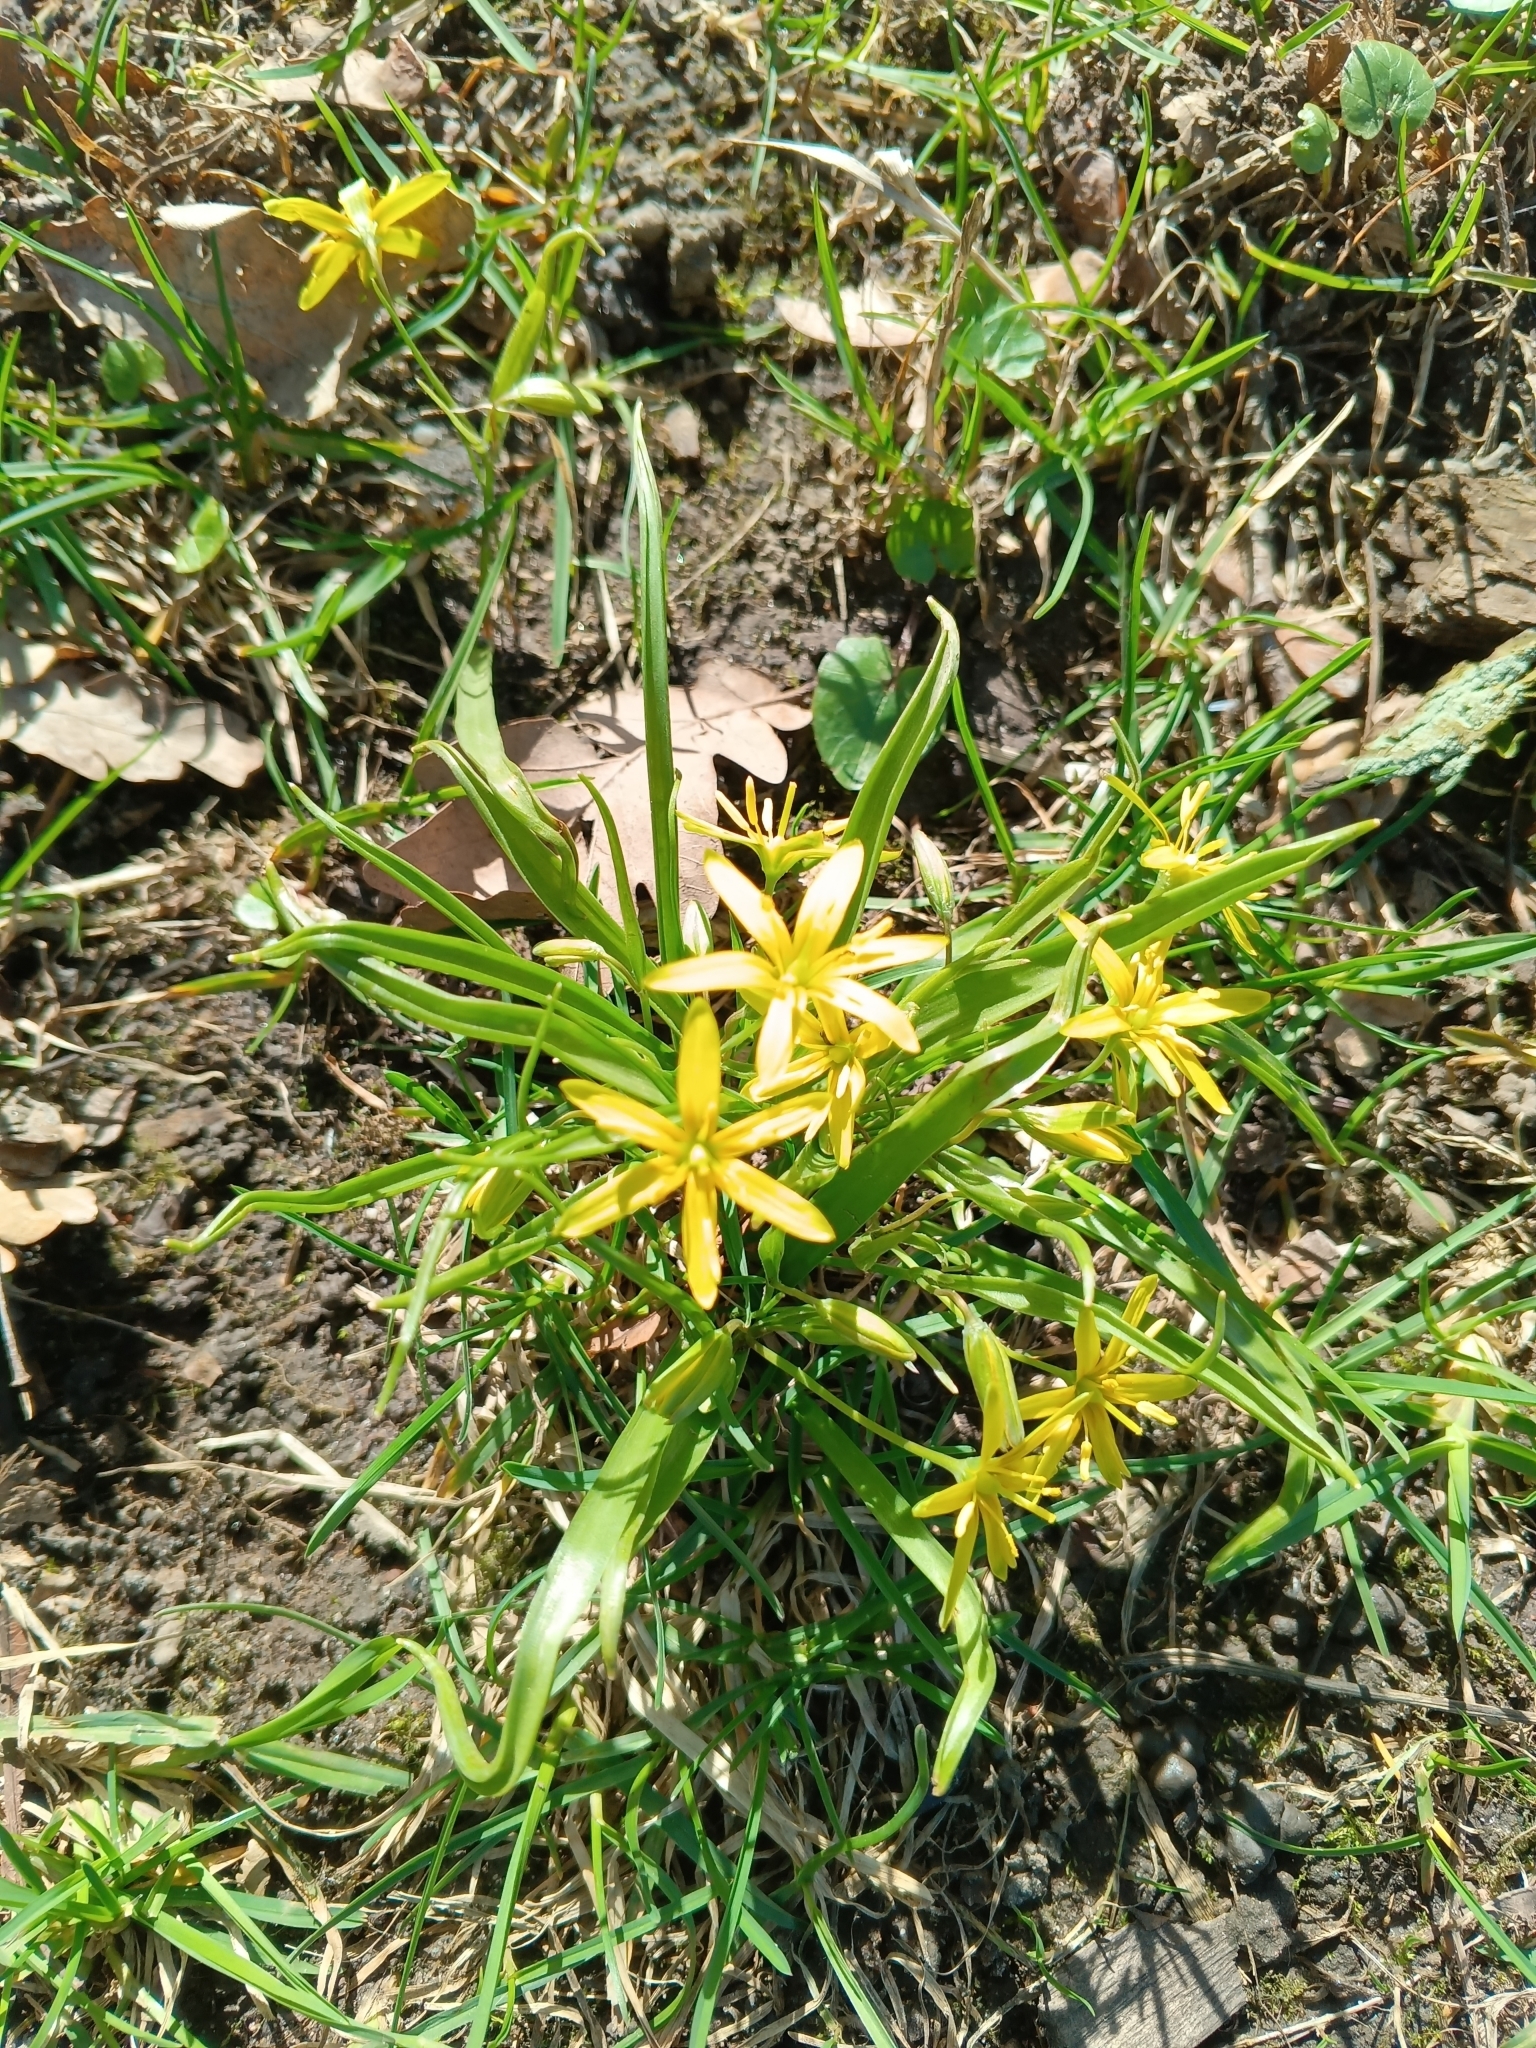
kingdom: Plantae
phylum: Tracheophyta
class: Liliopsida
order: Liliales
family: Liliaceae
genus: Gagea
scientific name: Gagea lutea
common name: Yellow star-of-bethlehem
